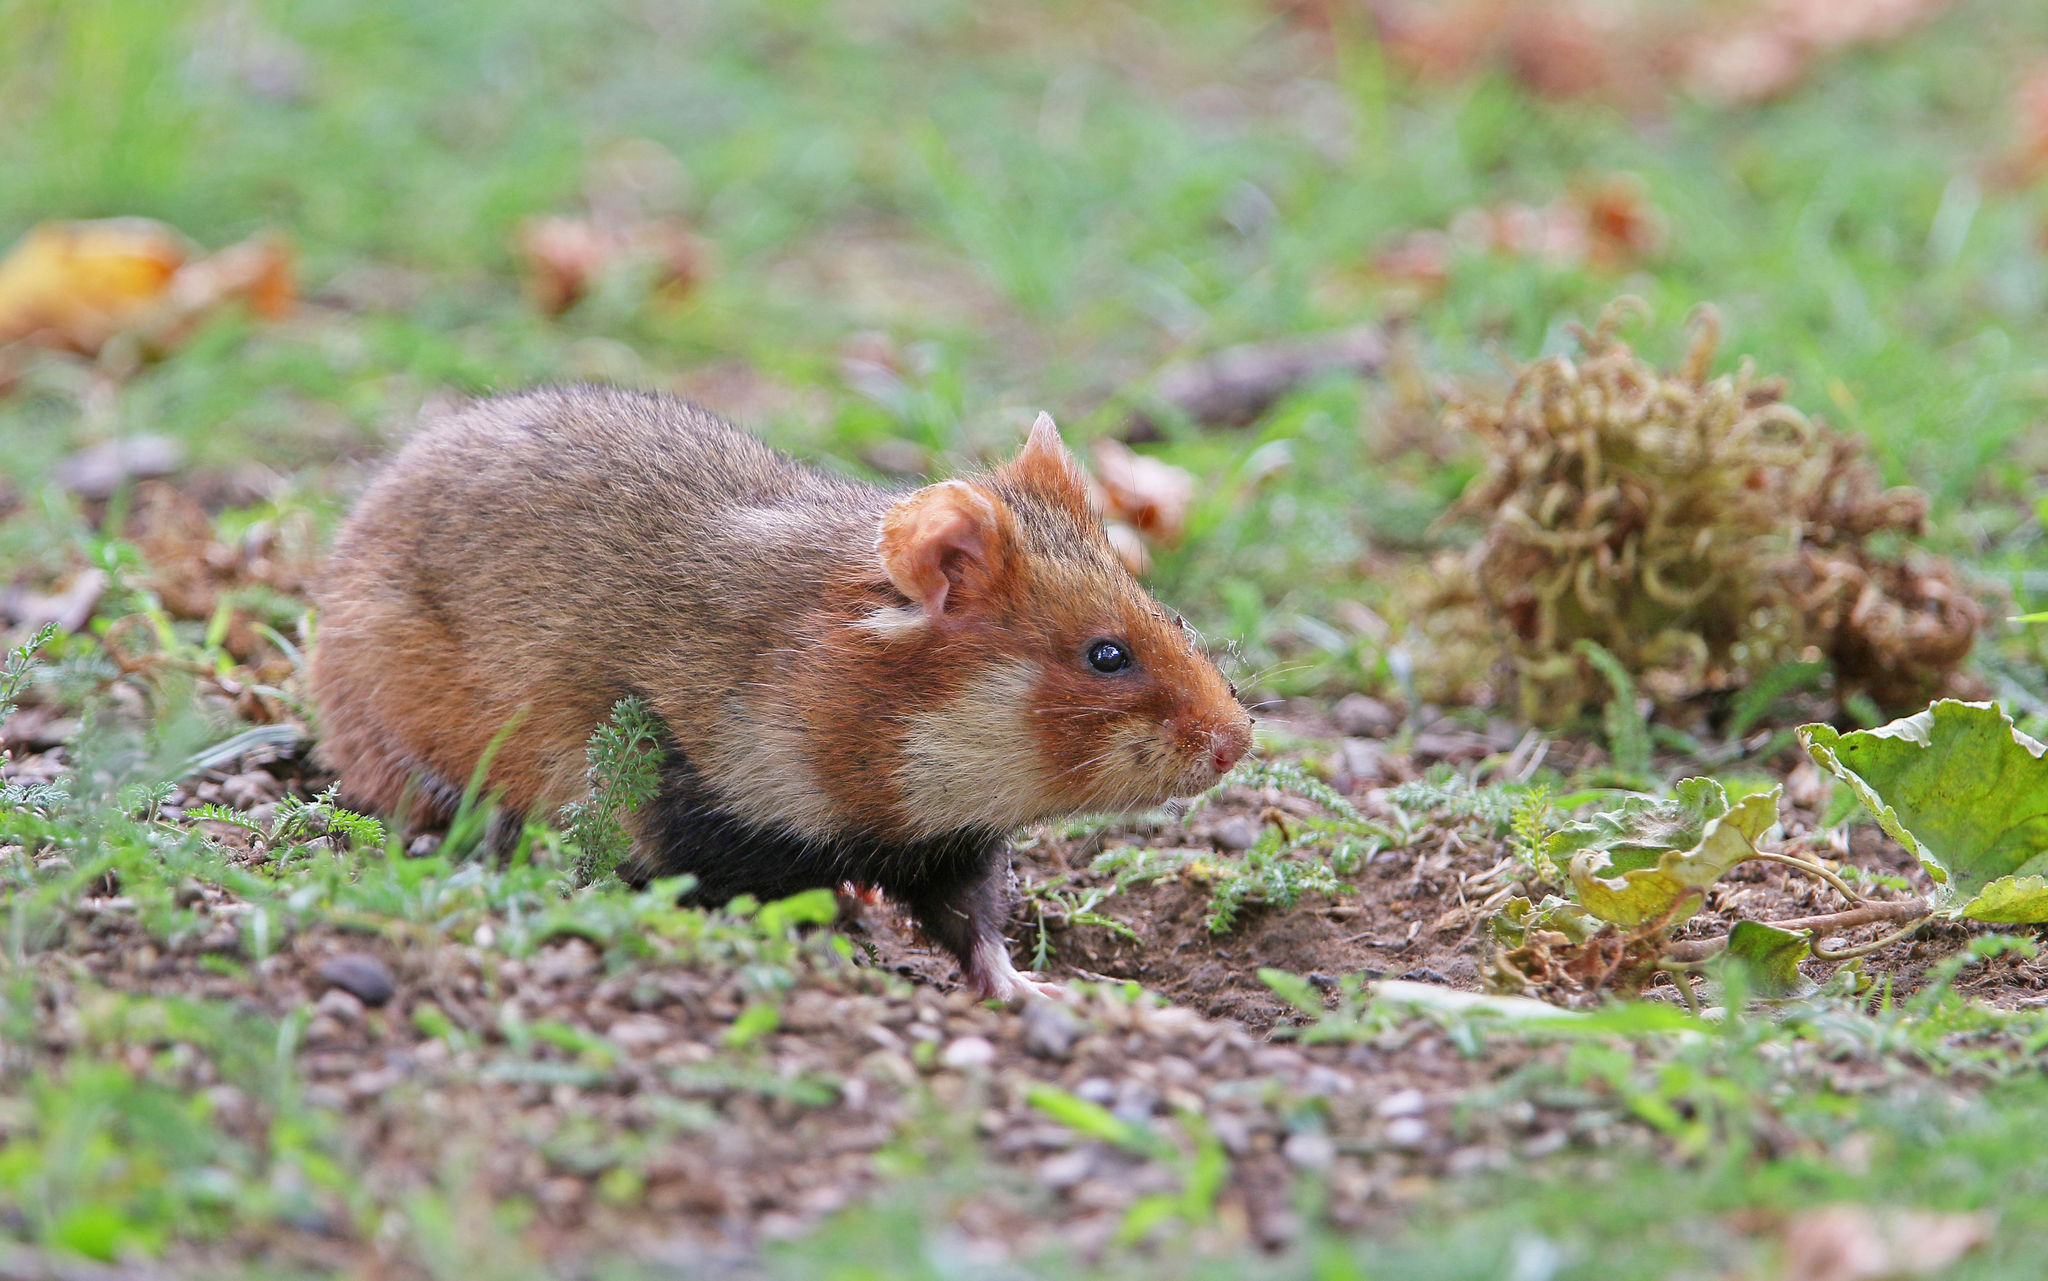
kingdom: Animalia
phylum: Chordata
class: Mammalia
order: Rodentia
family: Cricetidae
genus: Cricetus
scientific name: Cricetus cricetus
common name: Common hamster
